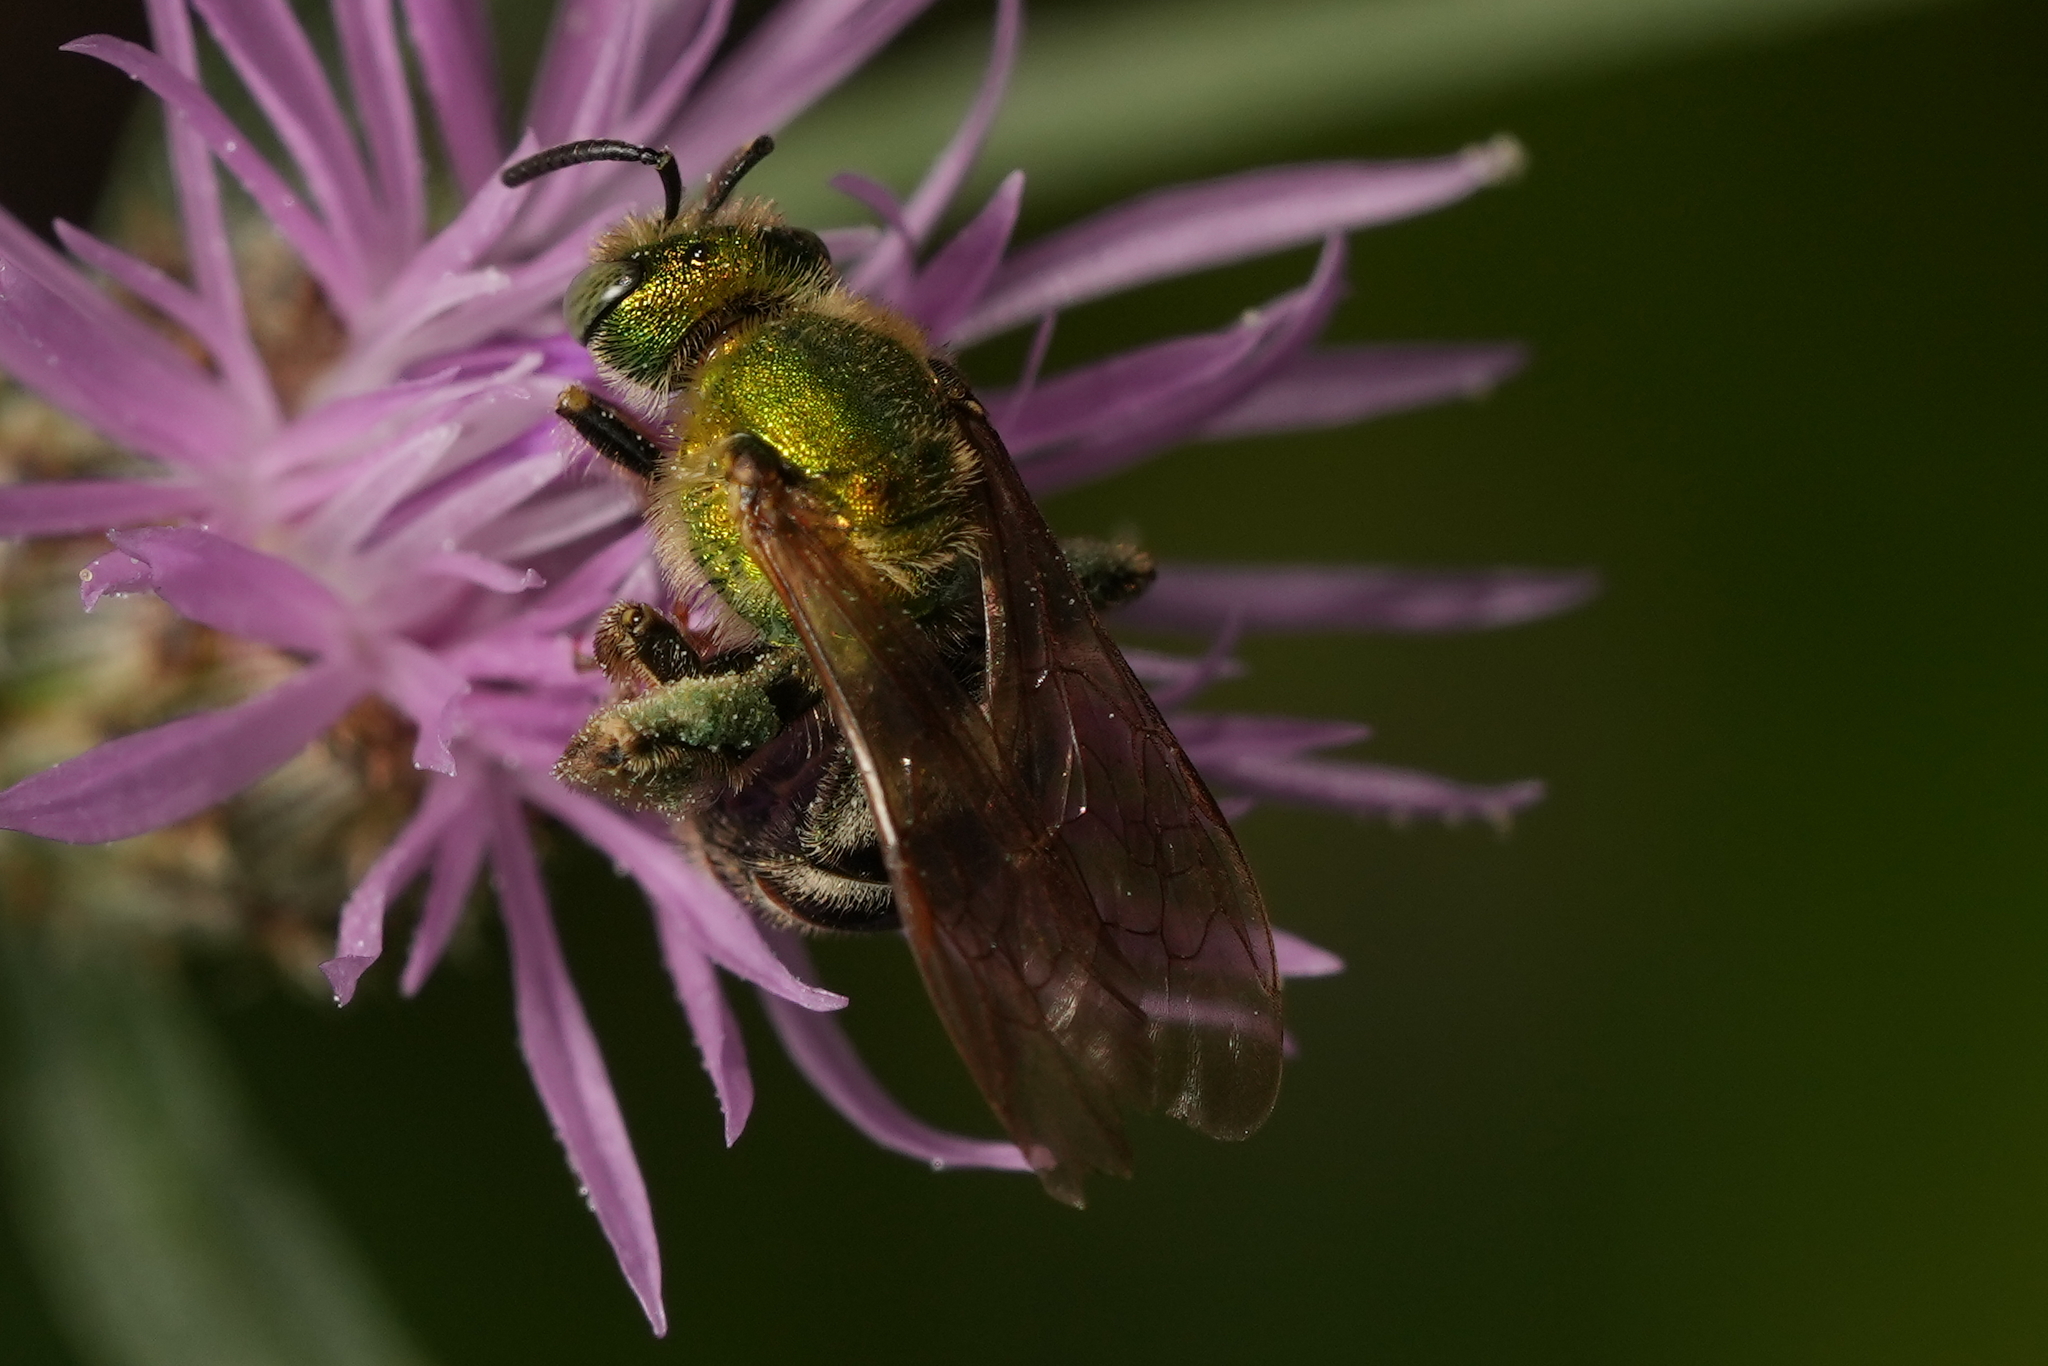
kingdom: Animalia
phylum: Arthropoda
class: Insecta
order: Hymenoptera
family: Halictidae
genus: Agapostemon
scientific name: Agapostemon virescens
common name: Bicolored striped sweat bee
